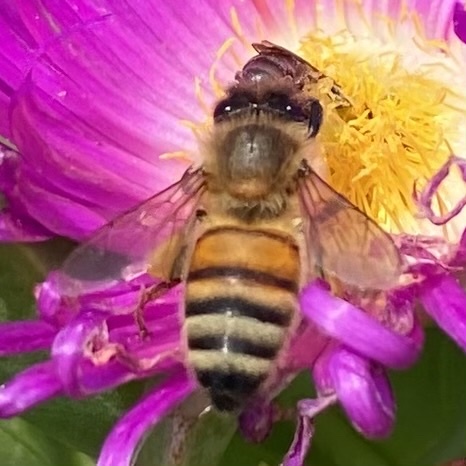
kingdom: Animalia
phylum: Arthropoda
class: Insecta
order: Hymenoptera
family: Apidae
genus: Apis
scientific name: Apis mellifera
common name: Honey bee
